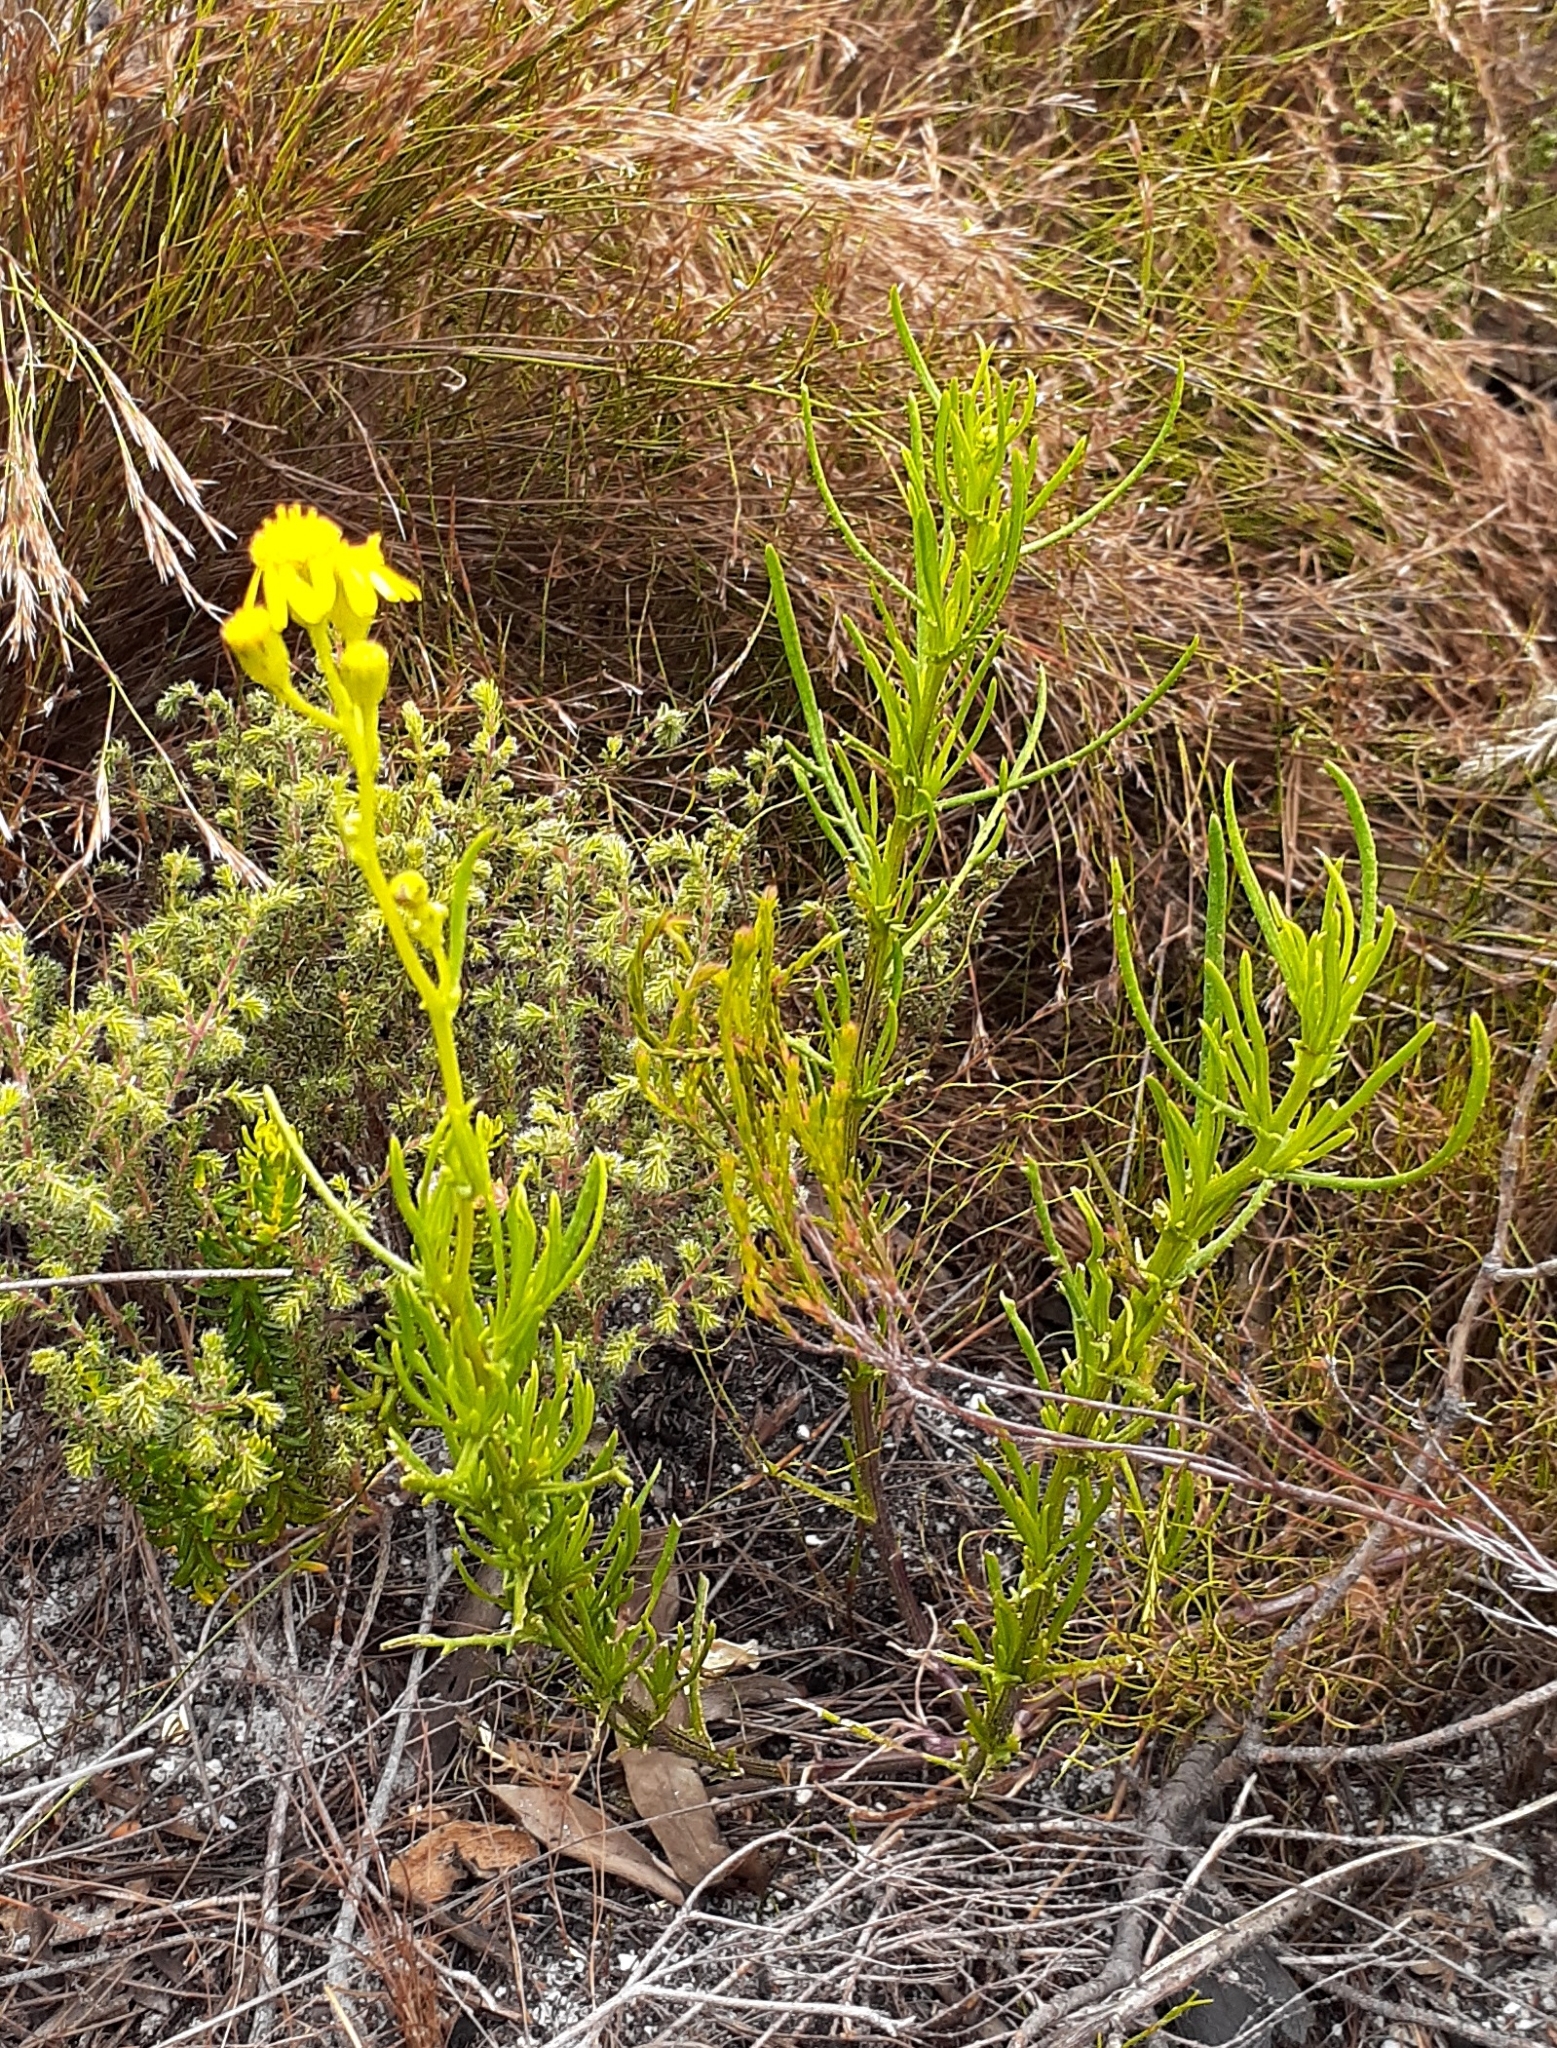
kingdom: Plantae
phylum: Tracheophyta
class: Magnoliopsida
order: Asterales
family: Asteraceae
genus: Senecio
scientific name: Senecio burchellii
